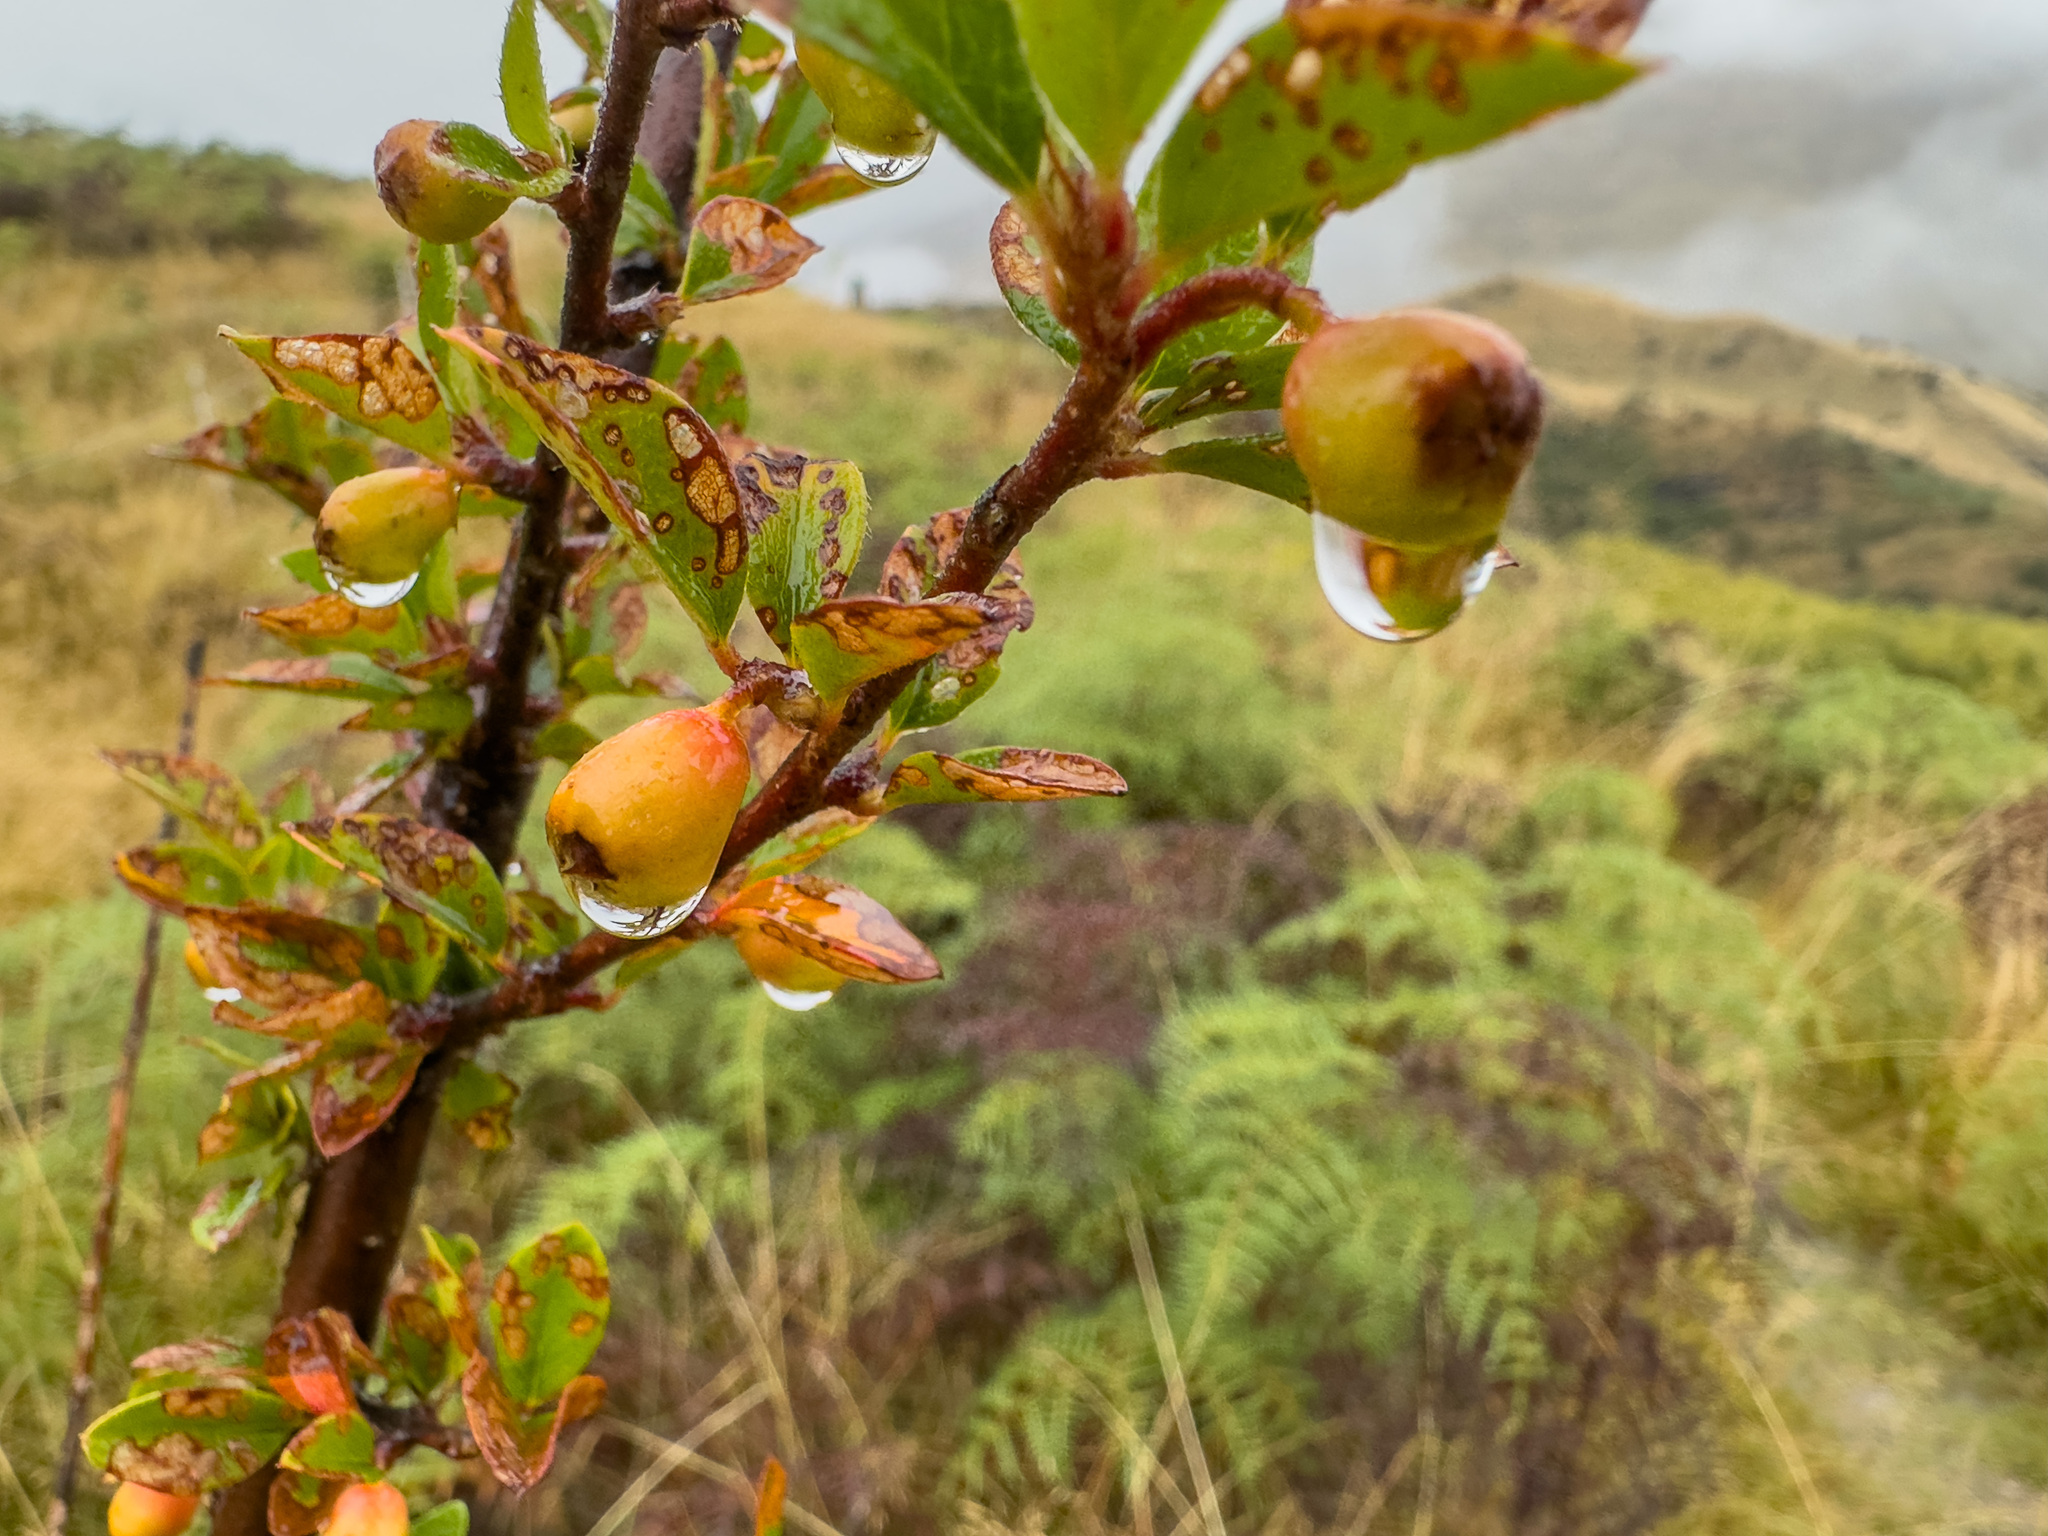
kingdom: Plantae
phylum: Tracheophyta
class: Magnoliopsida
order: Rosales
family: Rosaceae
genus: Cotoneaster
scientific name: Cotoneaster simonsii
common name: Himalayan cotoneaster
